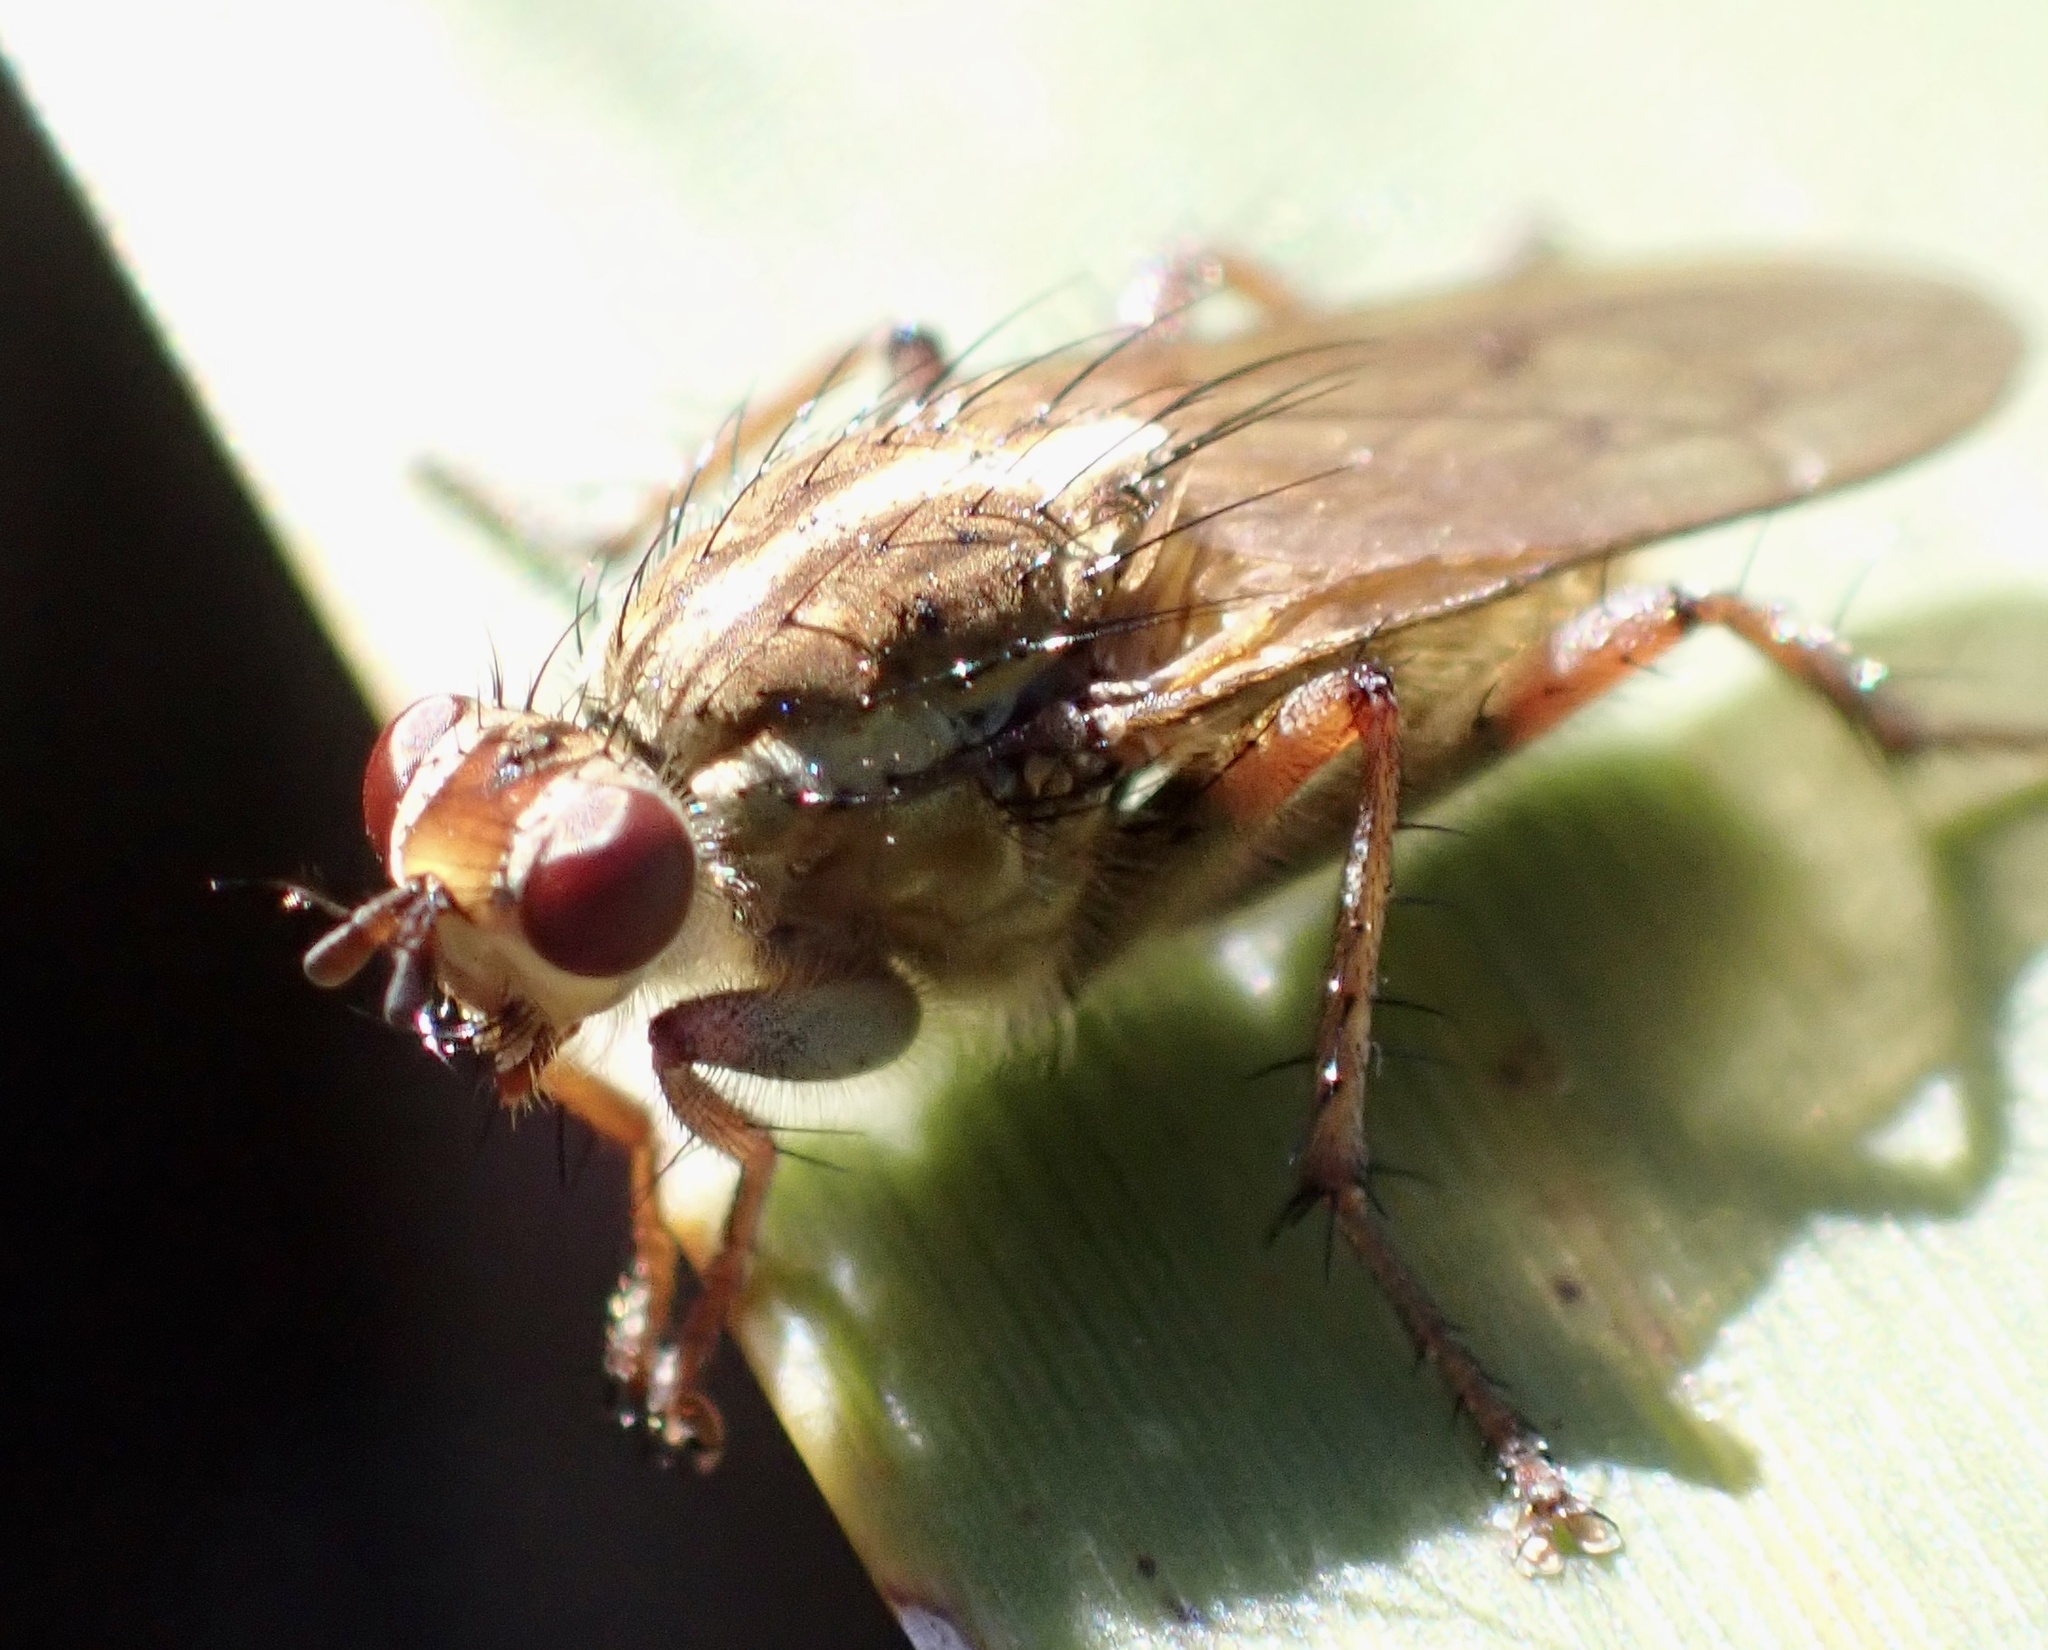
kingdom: Animalia
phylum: Arthropoda
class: Insecta
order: Diptera
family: Scathophagidae
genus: Scathophaga
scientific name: Scathophaga soror
